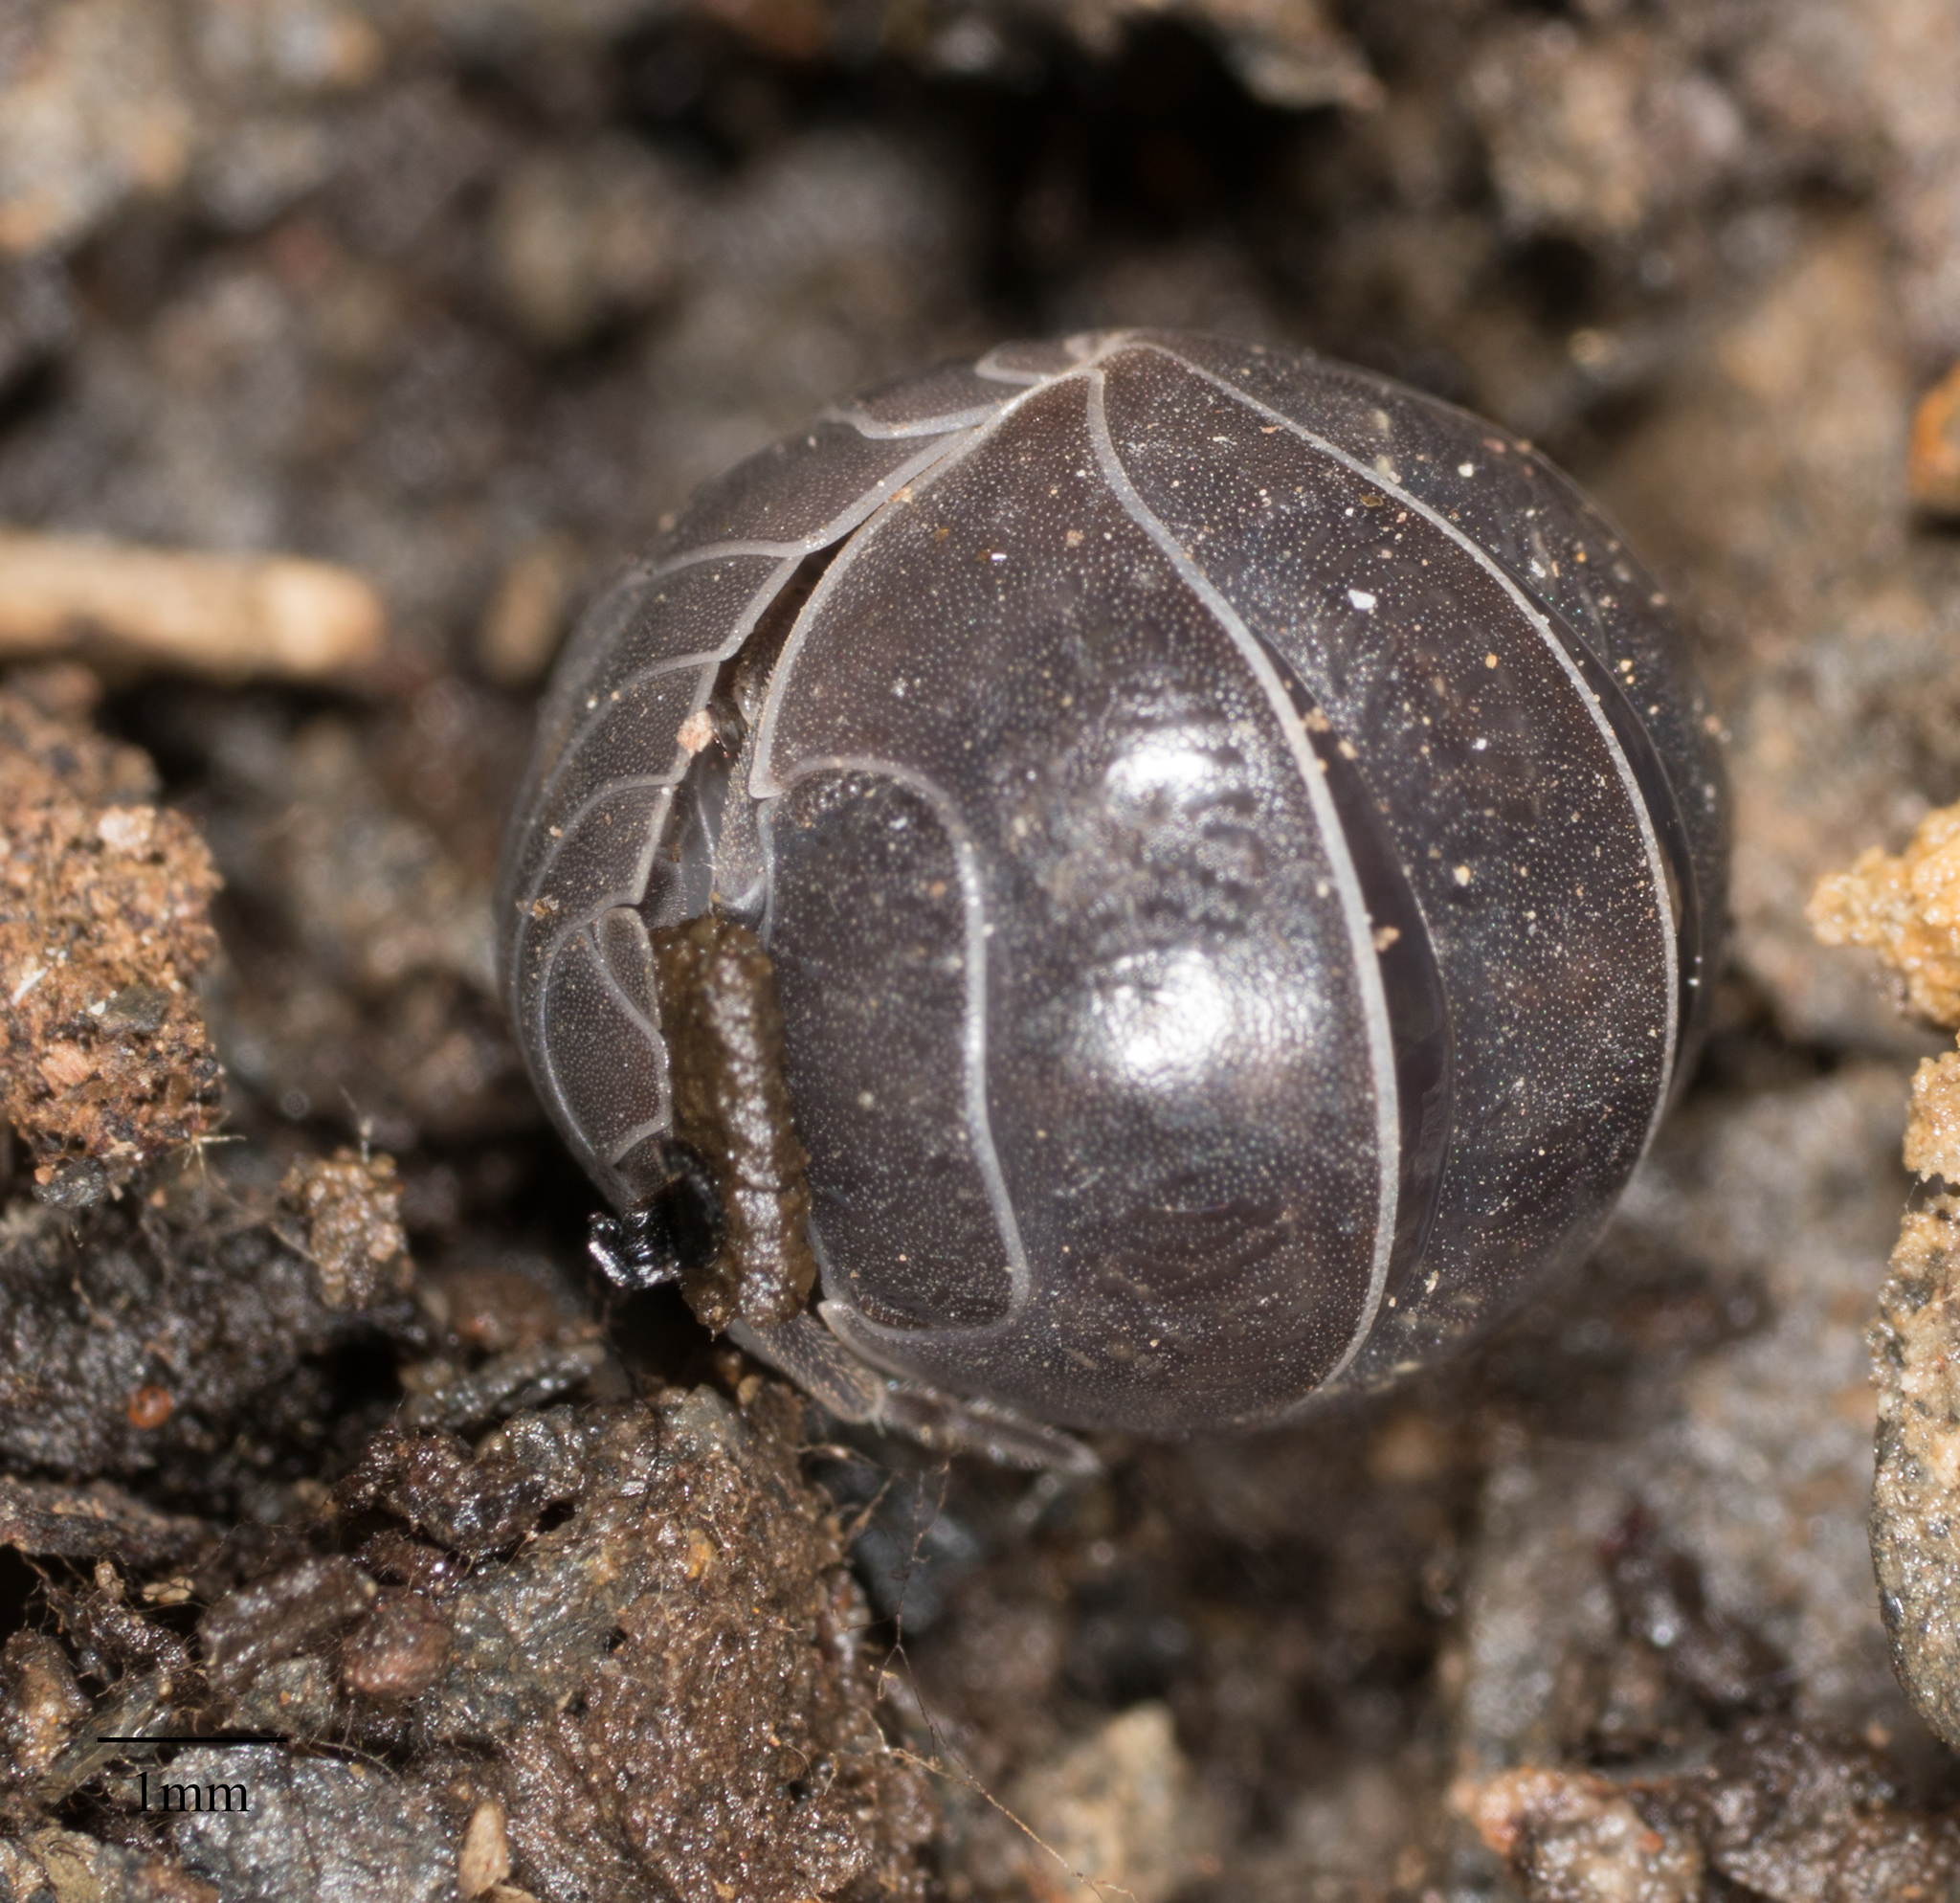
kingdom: Animalia
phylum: Arthropoda
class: Malacostraca
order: Isopoda
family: Armadillidiidae
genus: Armadillidium
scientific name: Armadillidium vulgare
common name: Common pill woodlouse
